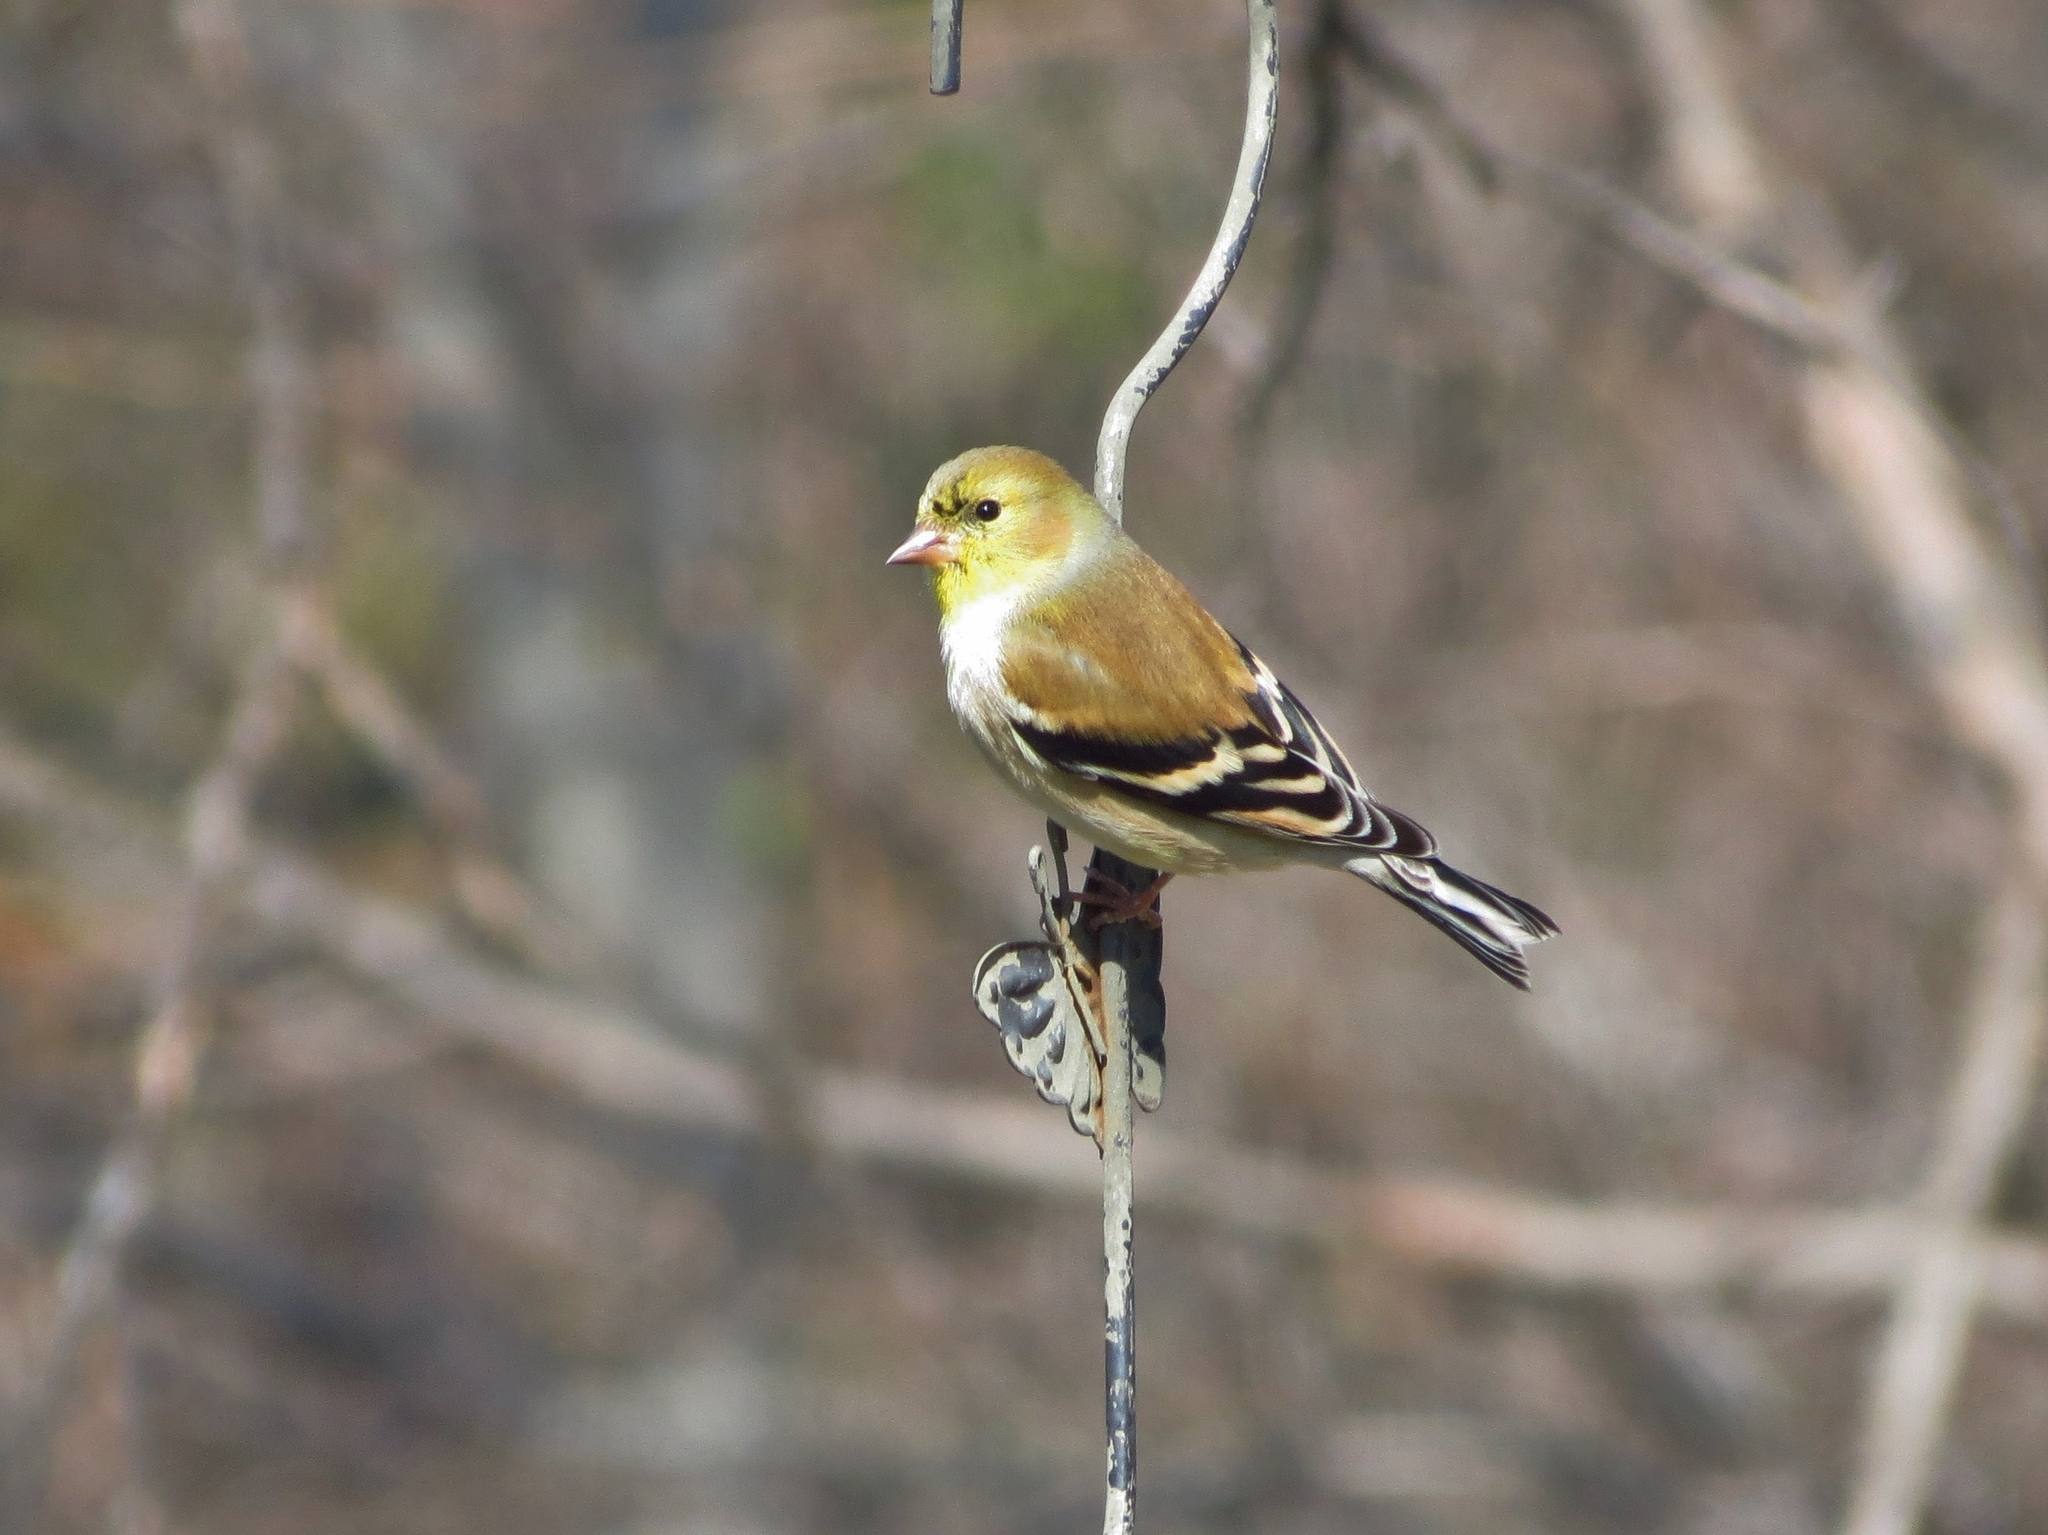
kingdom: Animalia
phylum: Chordata
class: Aves
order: Passeriformes
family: Fringillidae
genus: Spinus
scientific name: Spinus tristis
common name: American goldfinch
